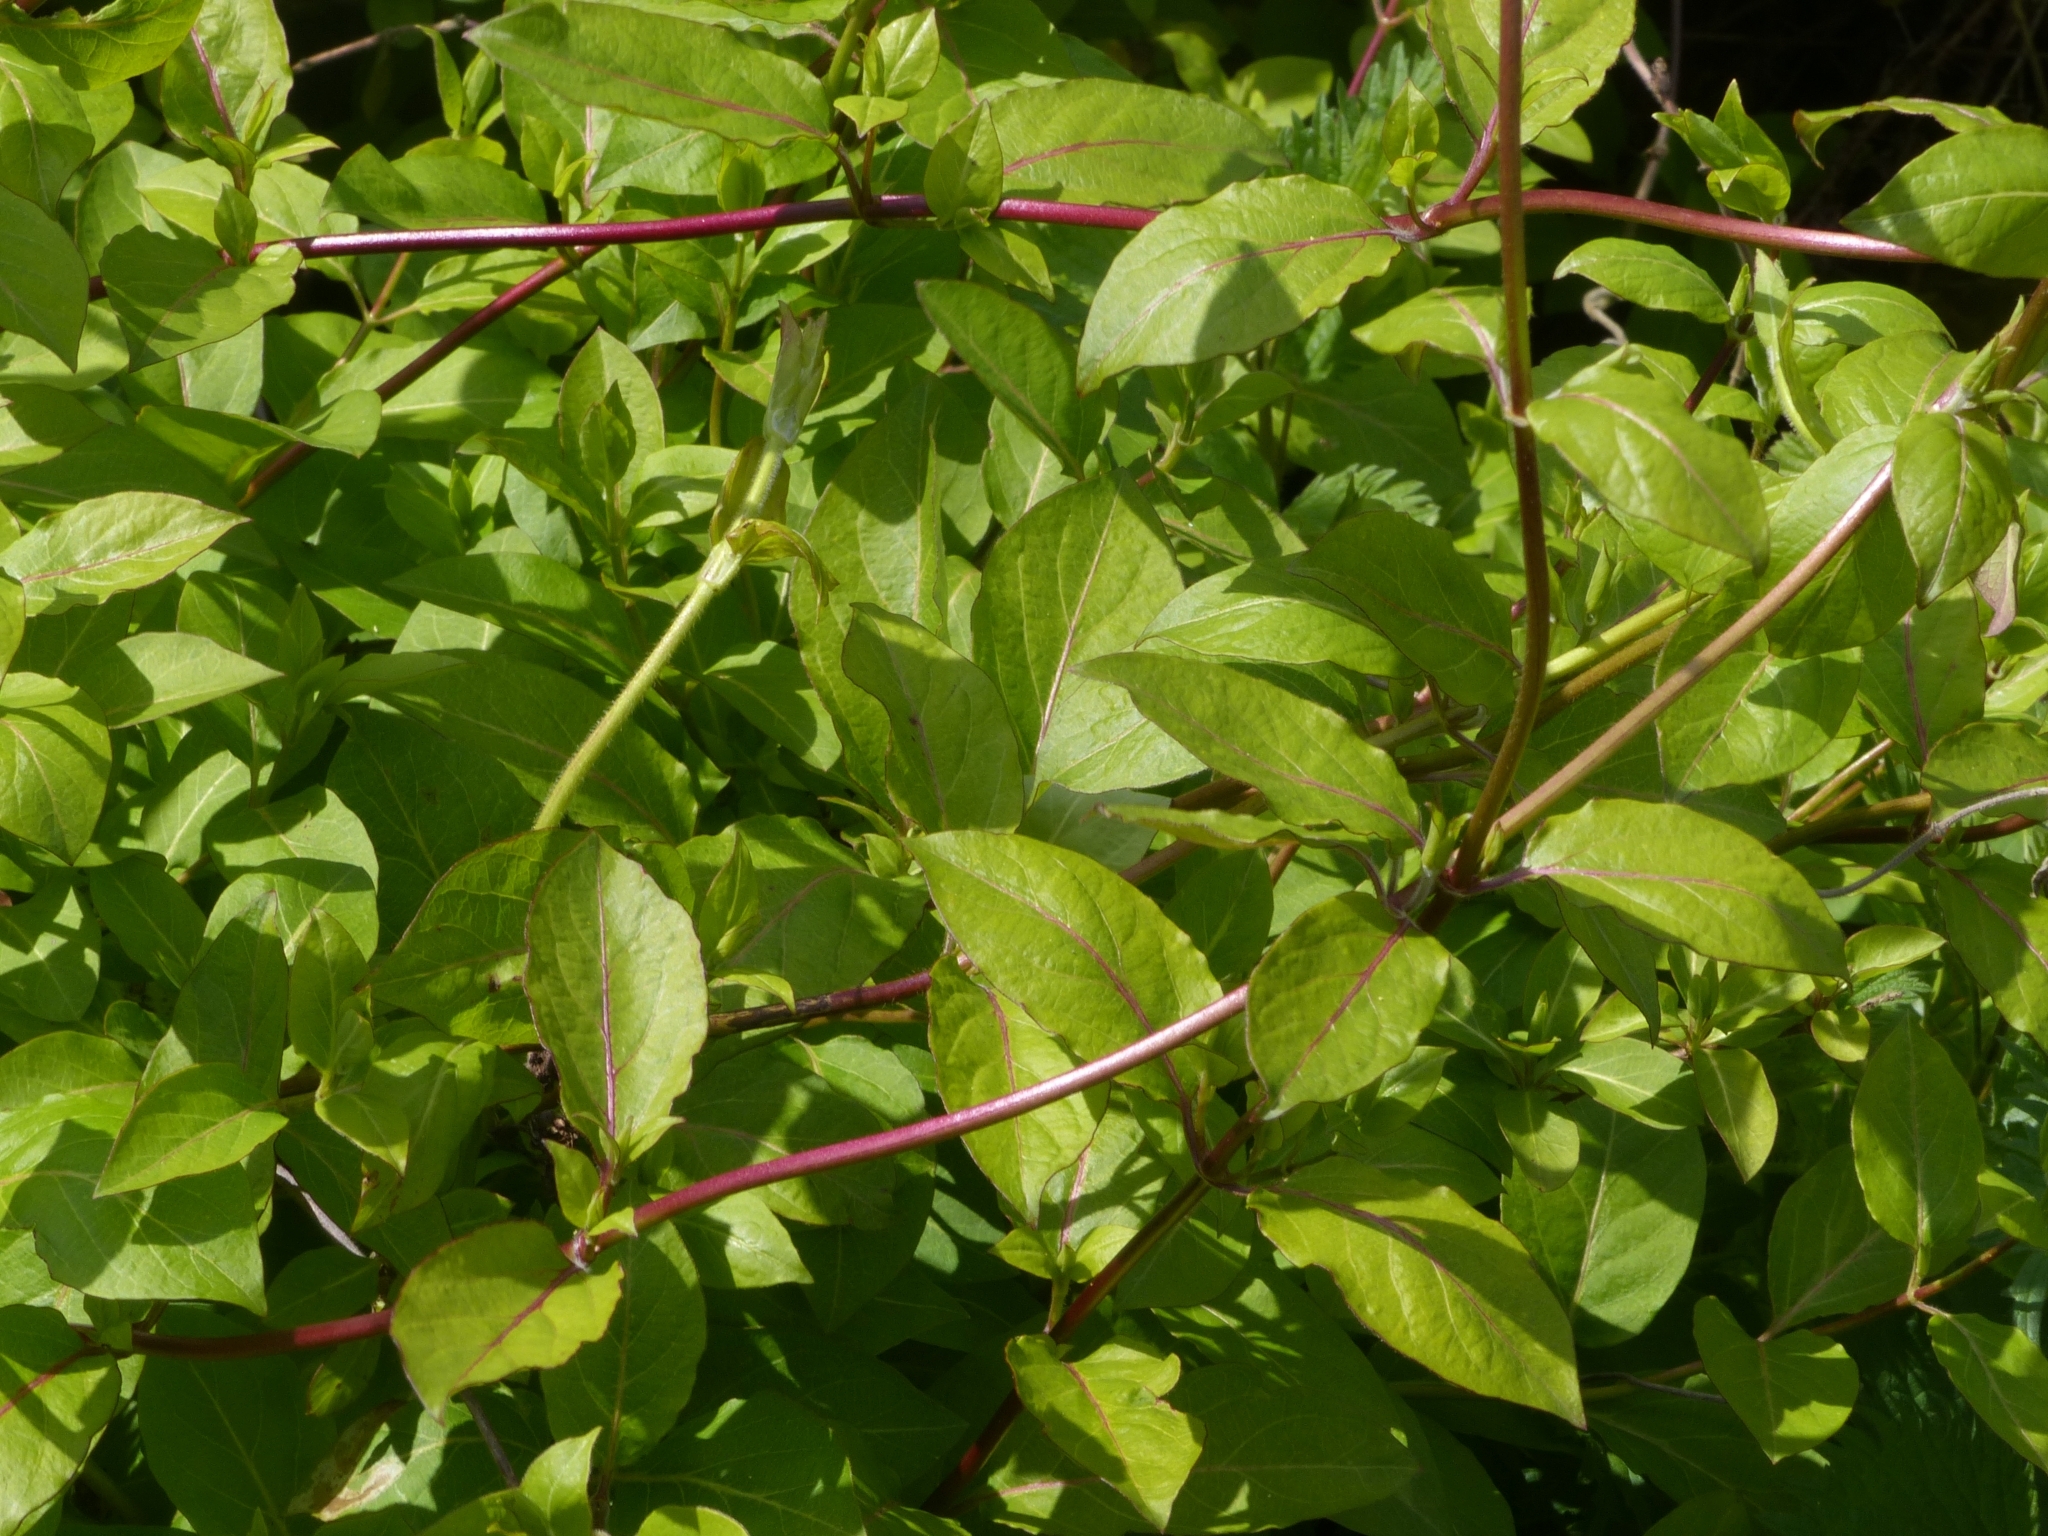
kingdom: Plantae
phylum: Tracheophyta
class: Magnoliopsida
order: Dipsacales
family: Caprifoliaceae
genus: Lonicera
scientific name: Lonicera japonica
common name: Japanese honeysuckle
